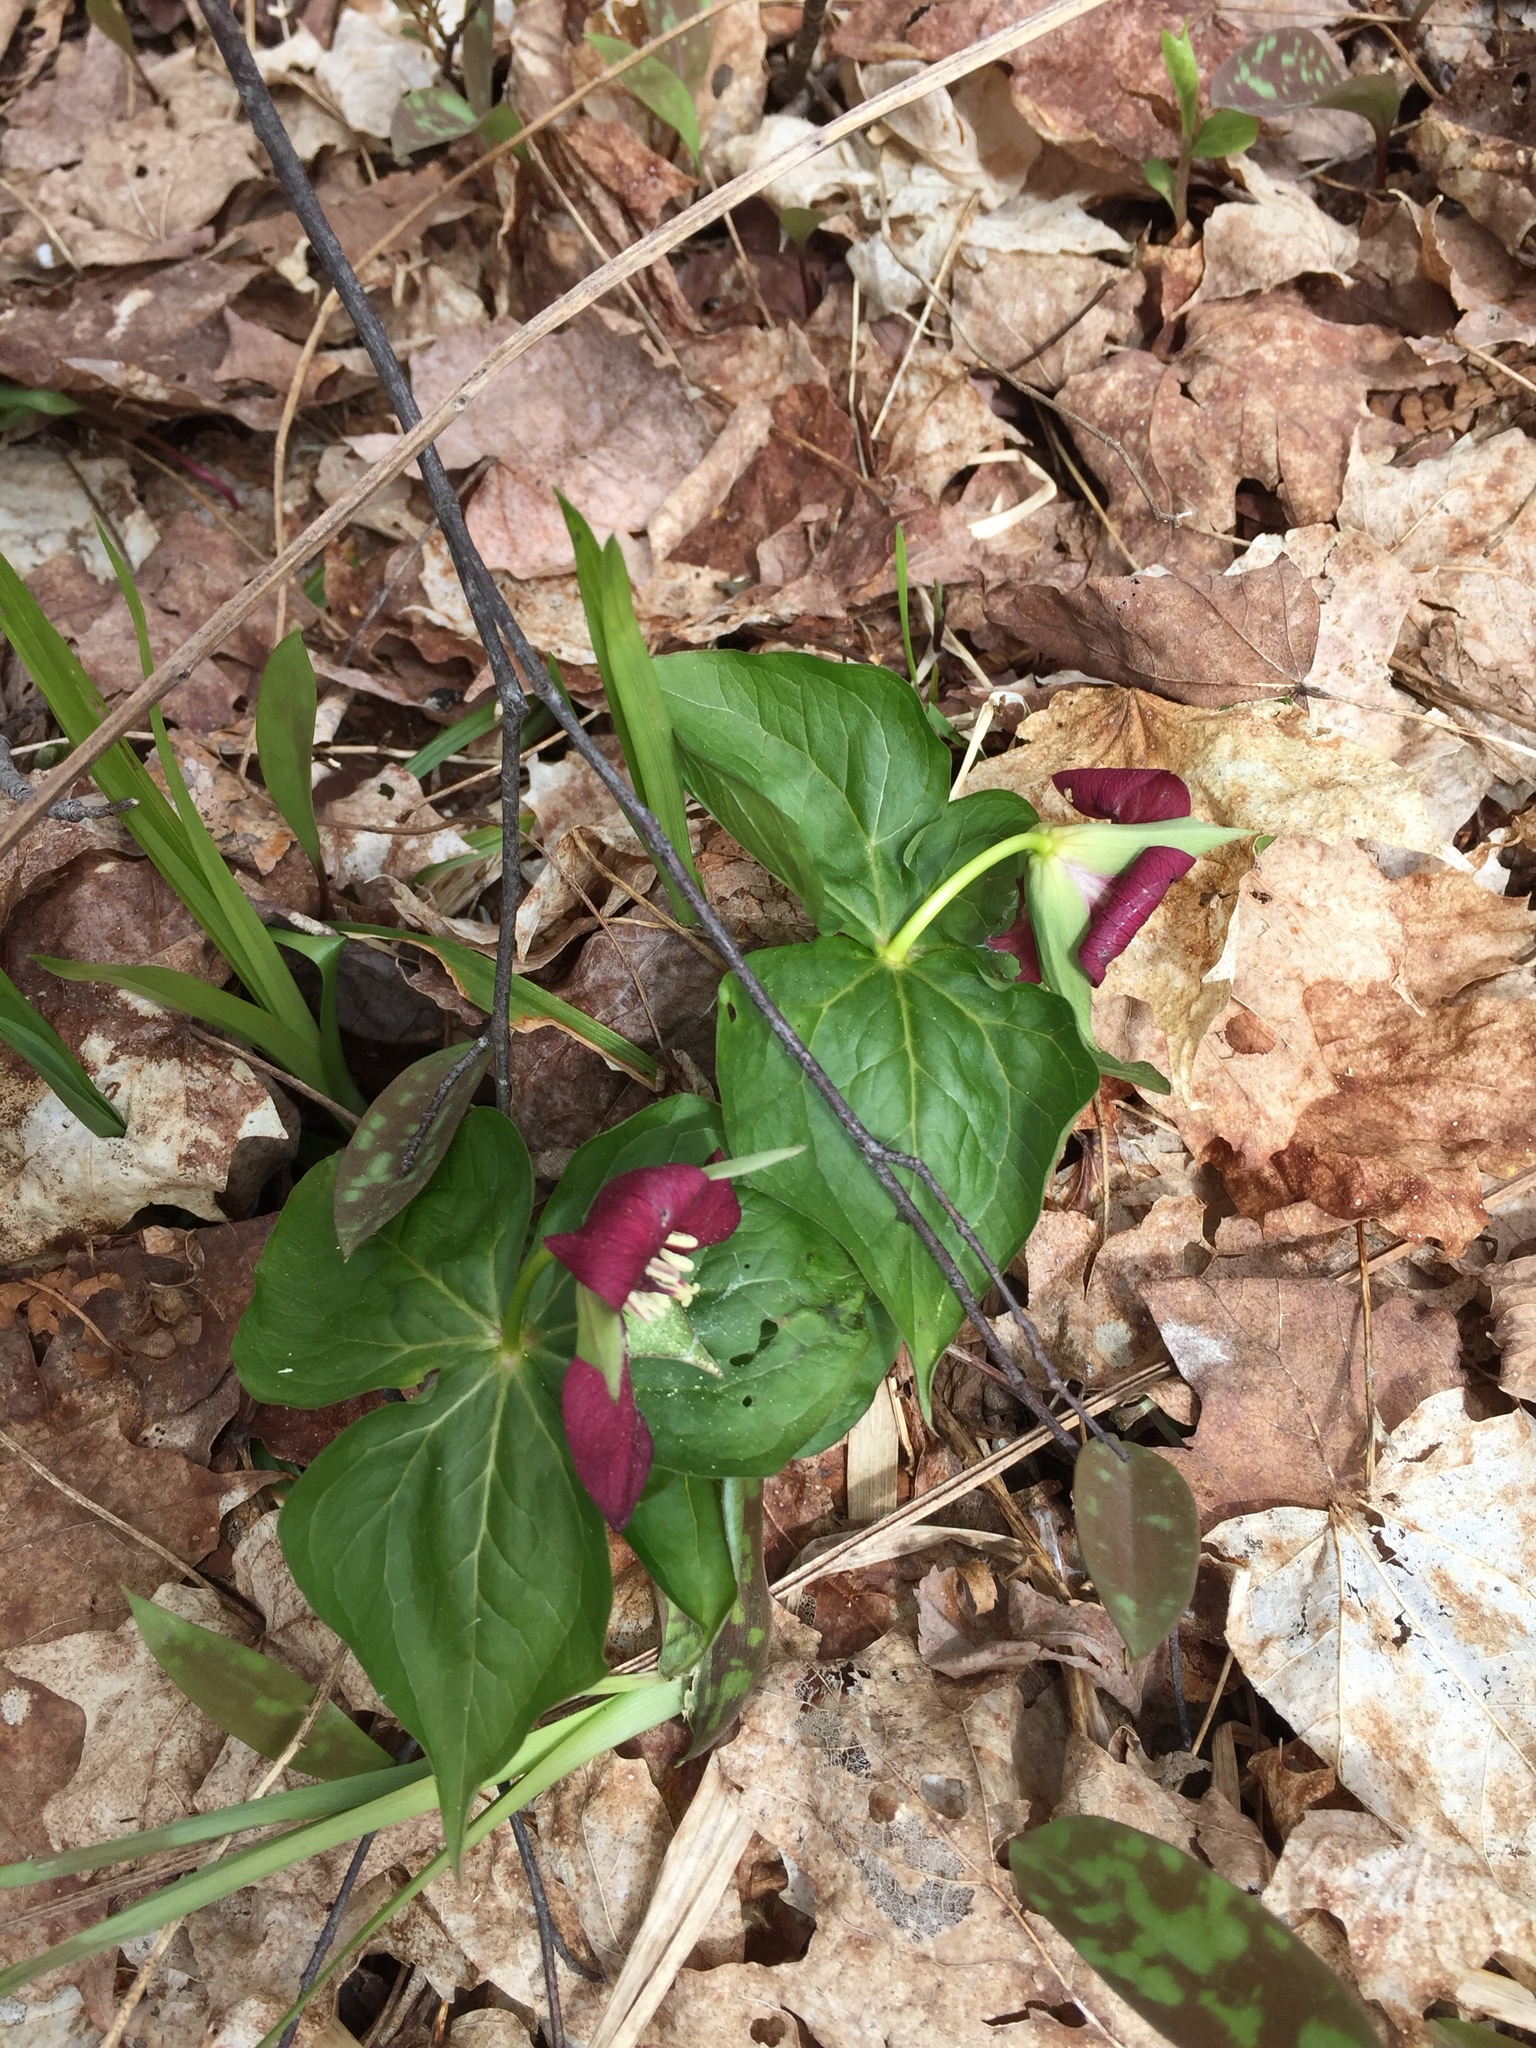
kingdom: Plantae
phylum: Tracheophyta
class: Liliopsida
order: Liliales
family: Melanthiaceae
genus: Trillium
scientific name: Trillium erectum
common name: Purple trillium
